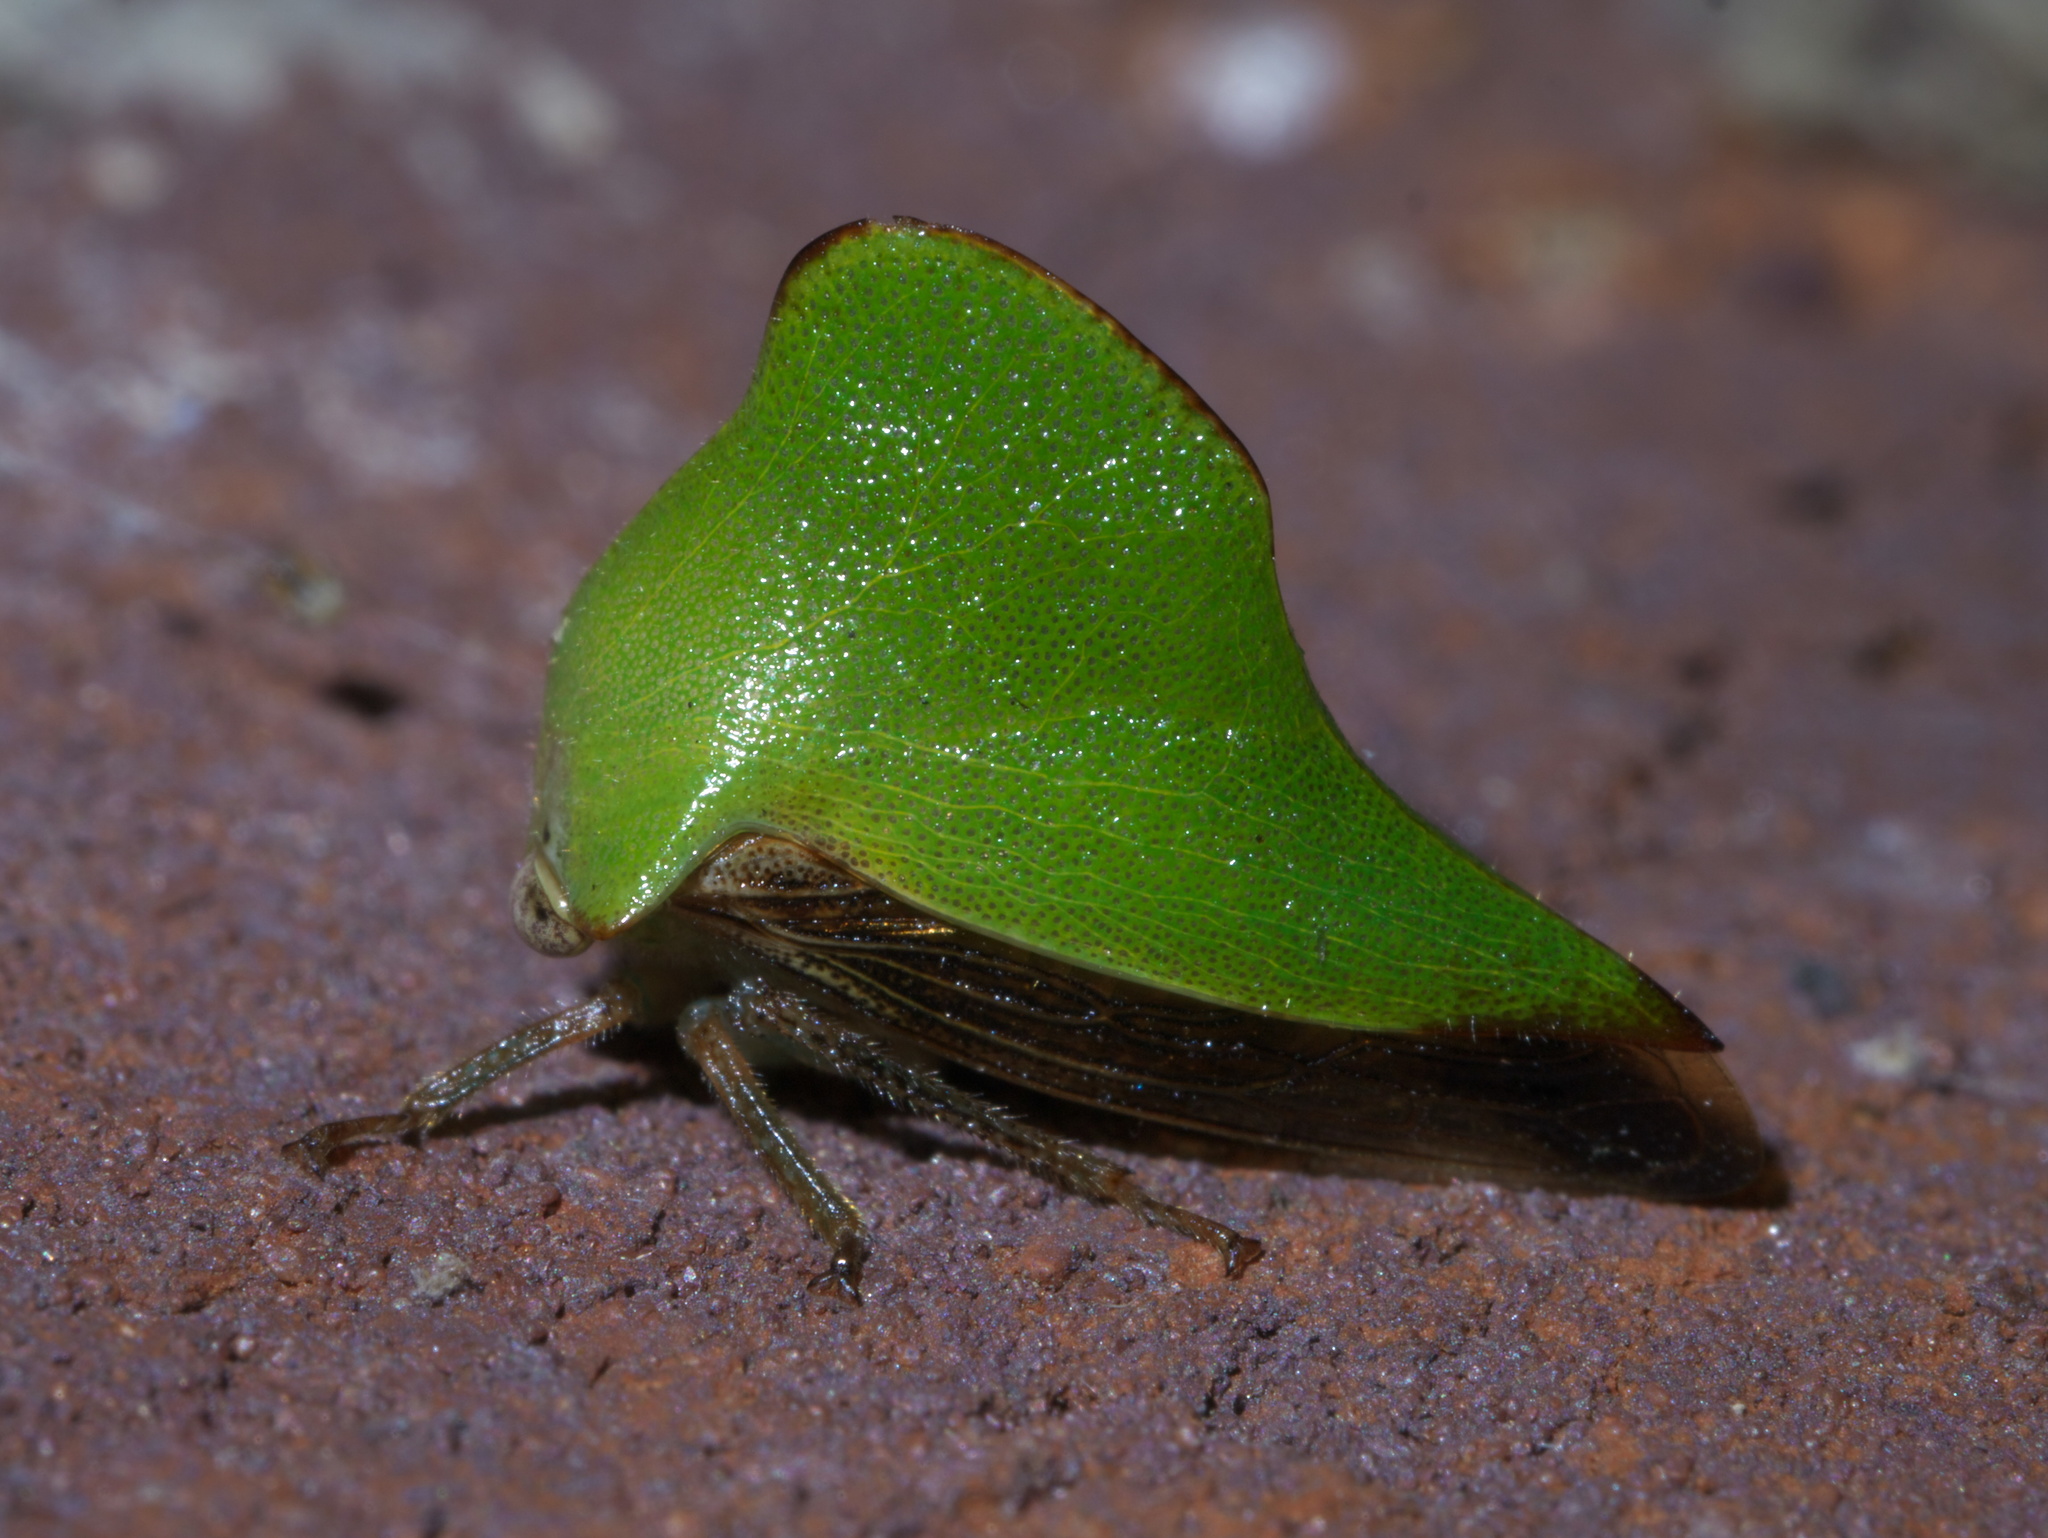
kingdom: Animalia
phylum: Arthropoda
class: Insecta
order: Hemiptera
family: Membracidae
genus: Helonica
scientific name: Helonica excelsa
